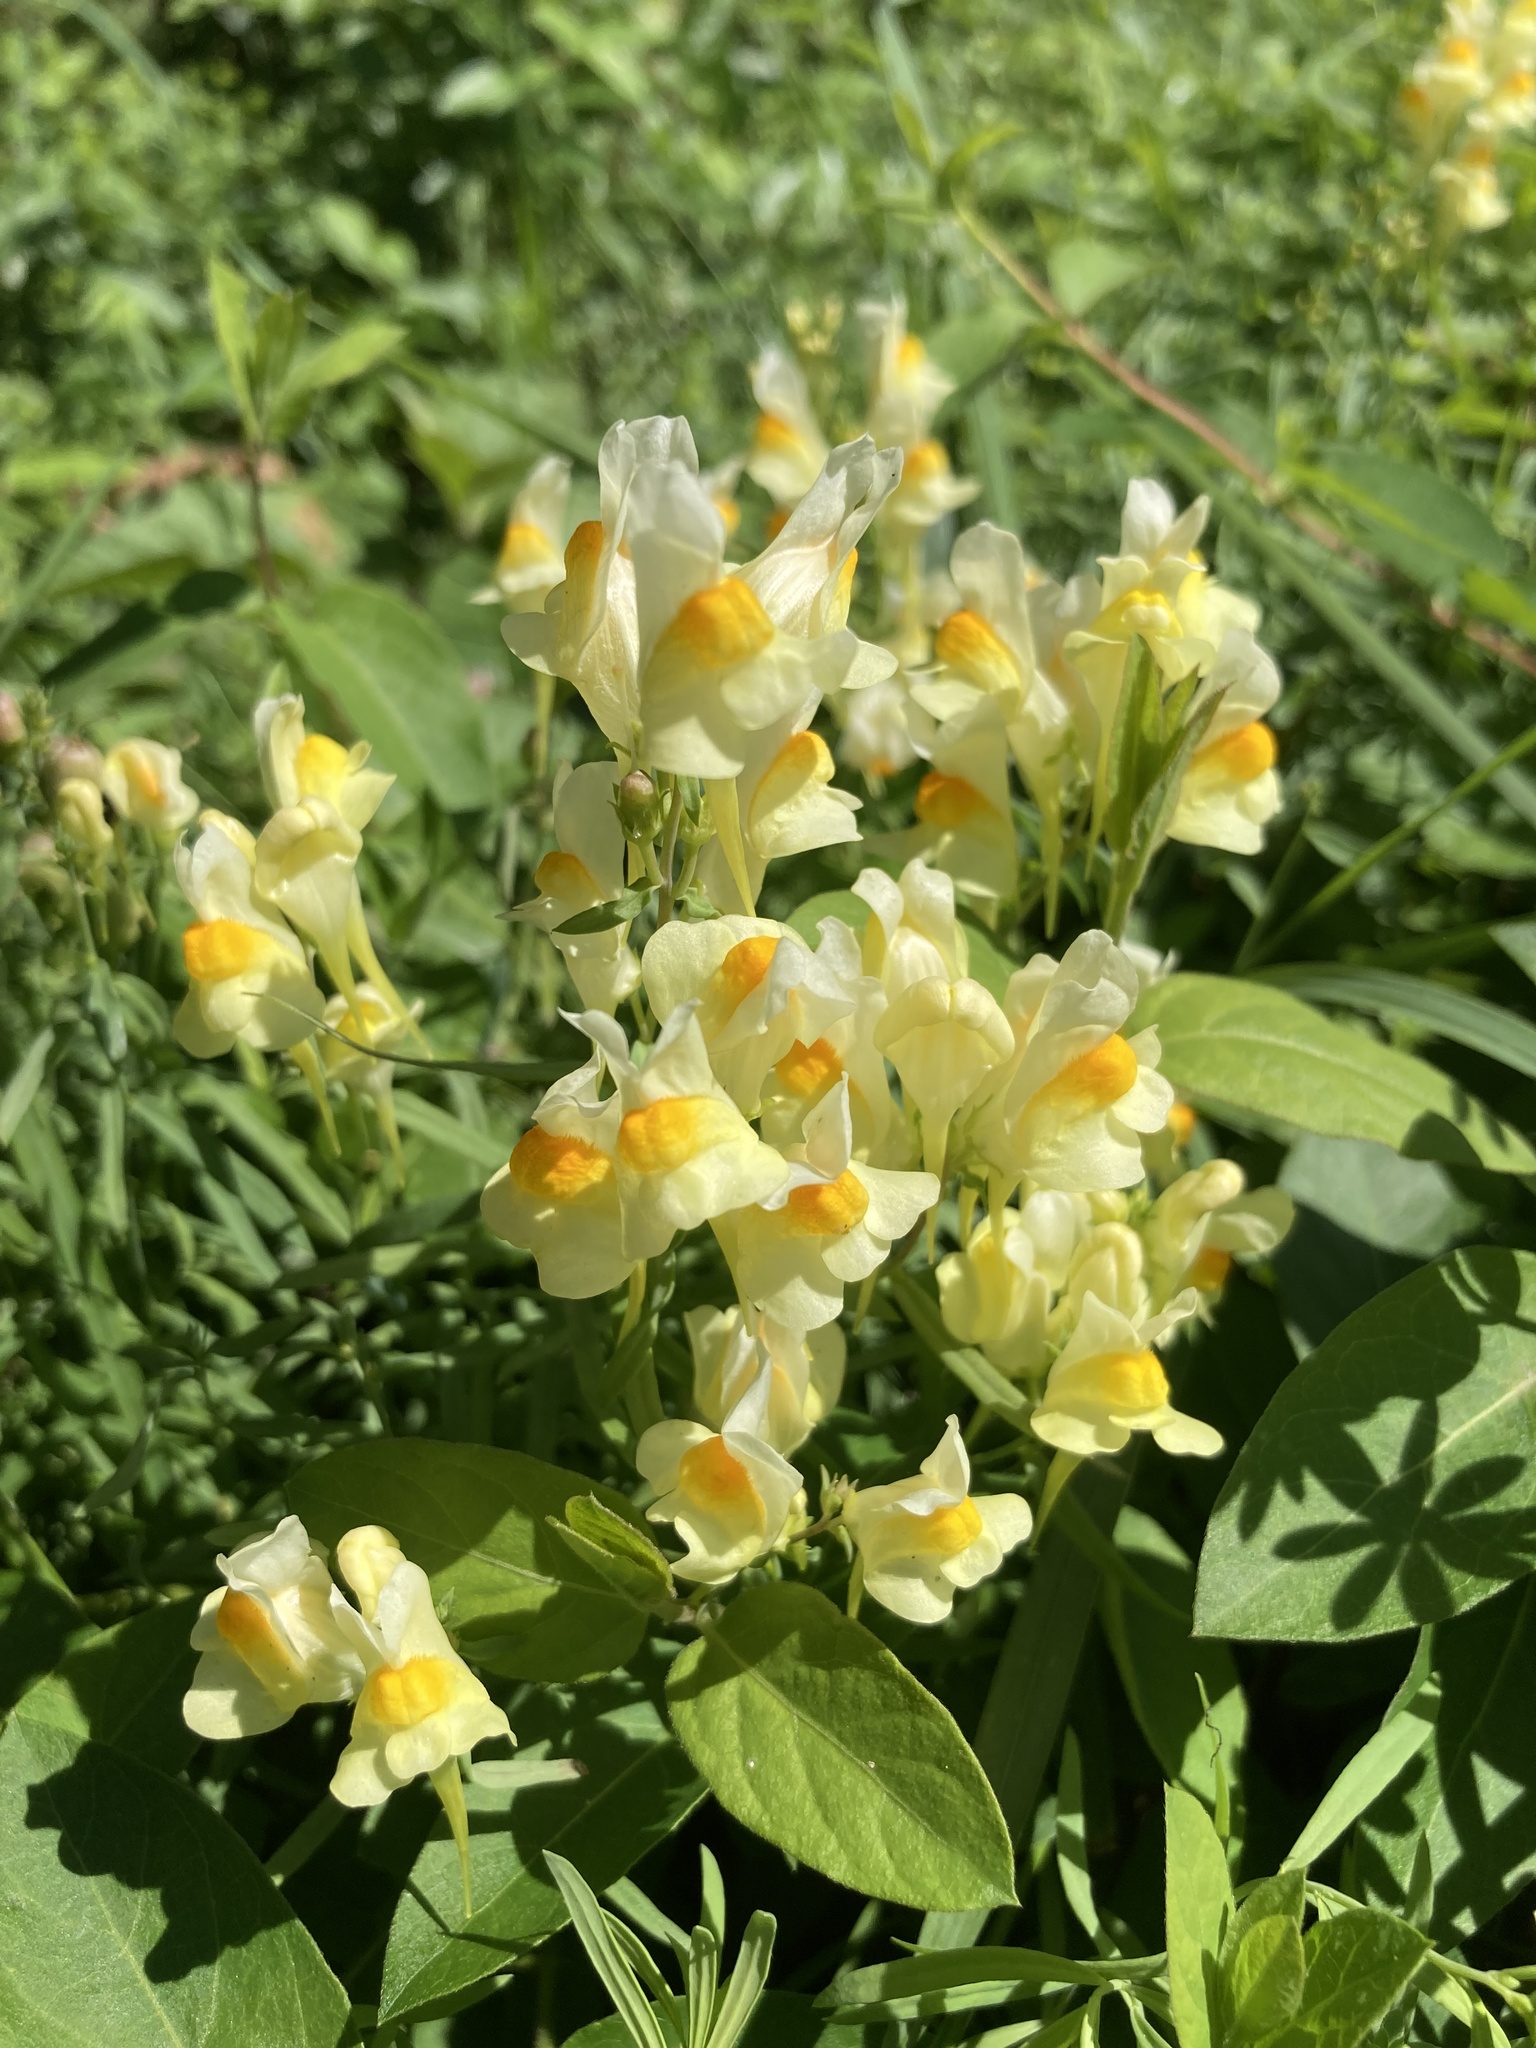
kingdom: Plantae
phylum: Tracheophyta
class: Magnoliopsida
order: Lamiales
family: Plantaginaceae
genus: Linaria
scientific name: Linaria vulgaris
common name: Butter and eggs
